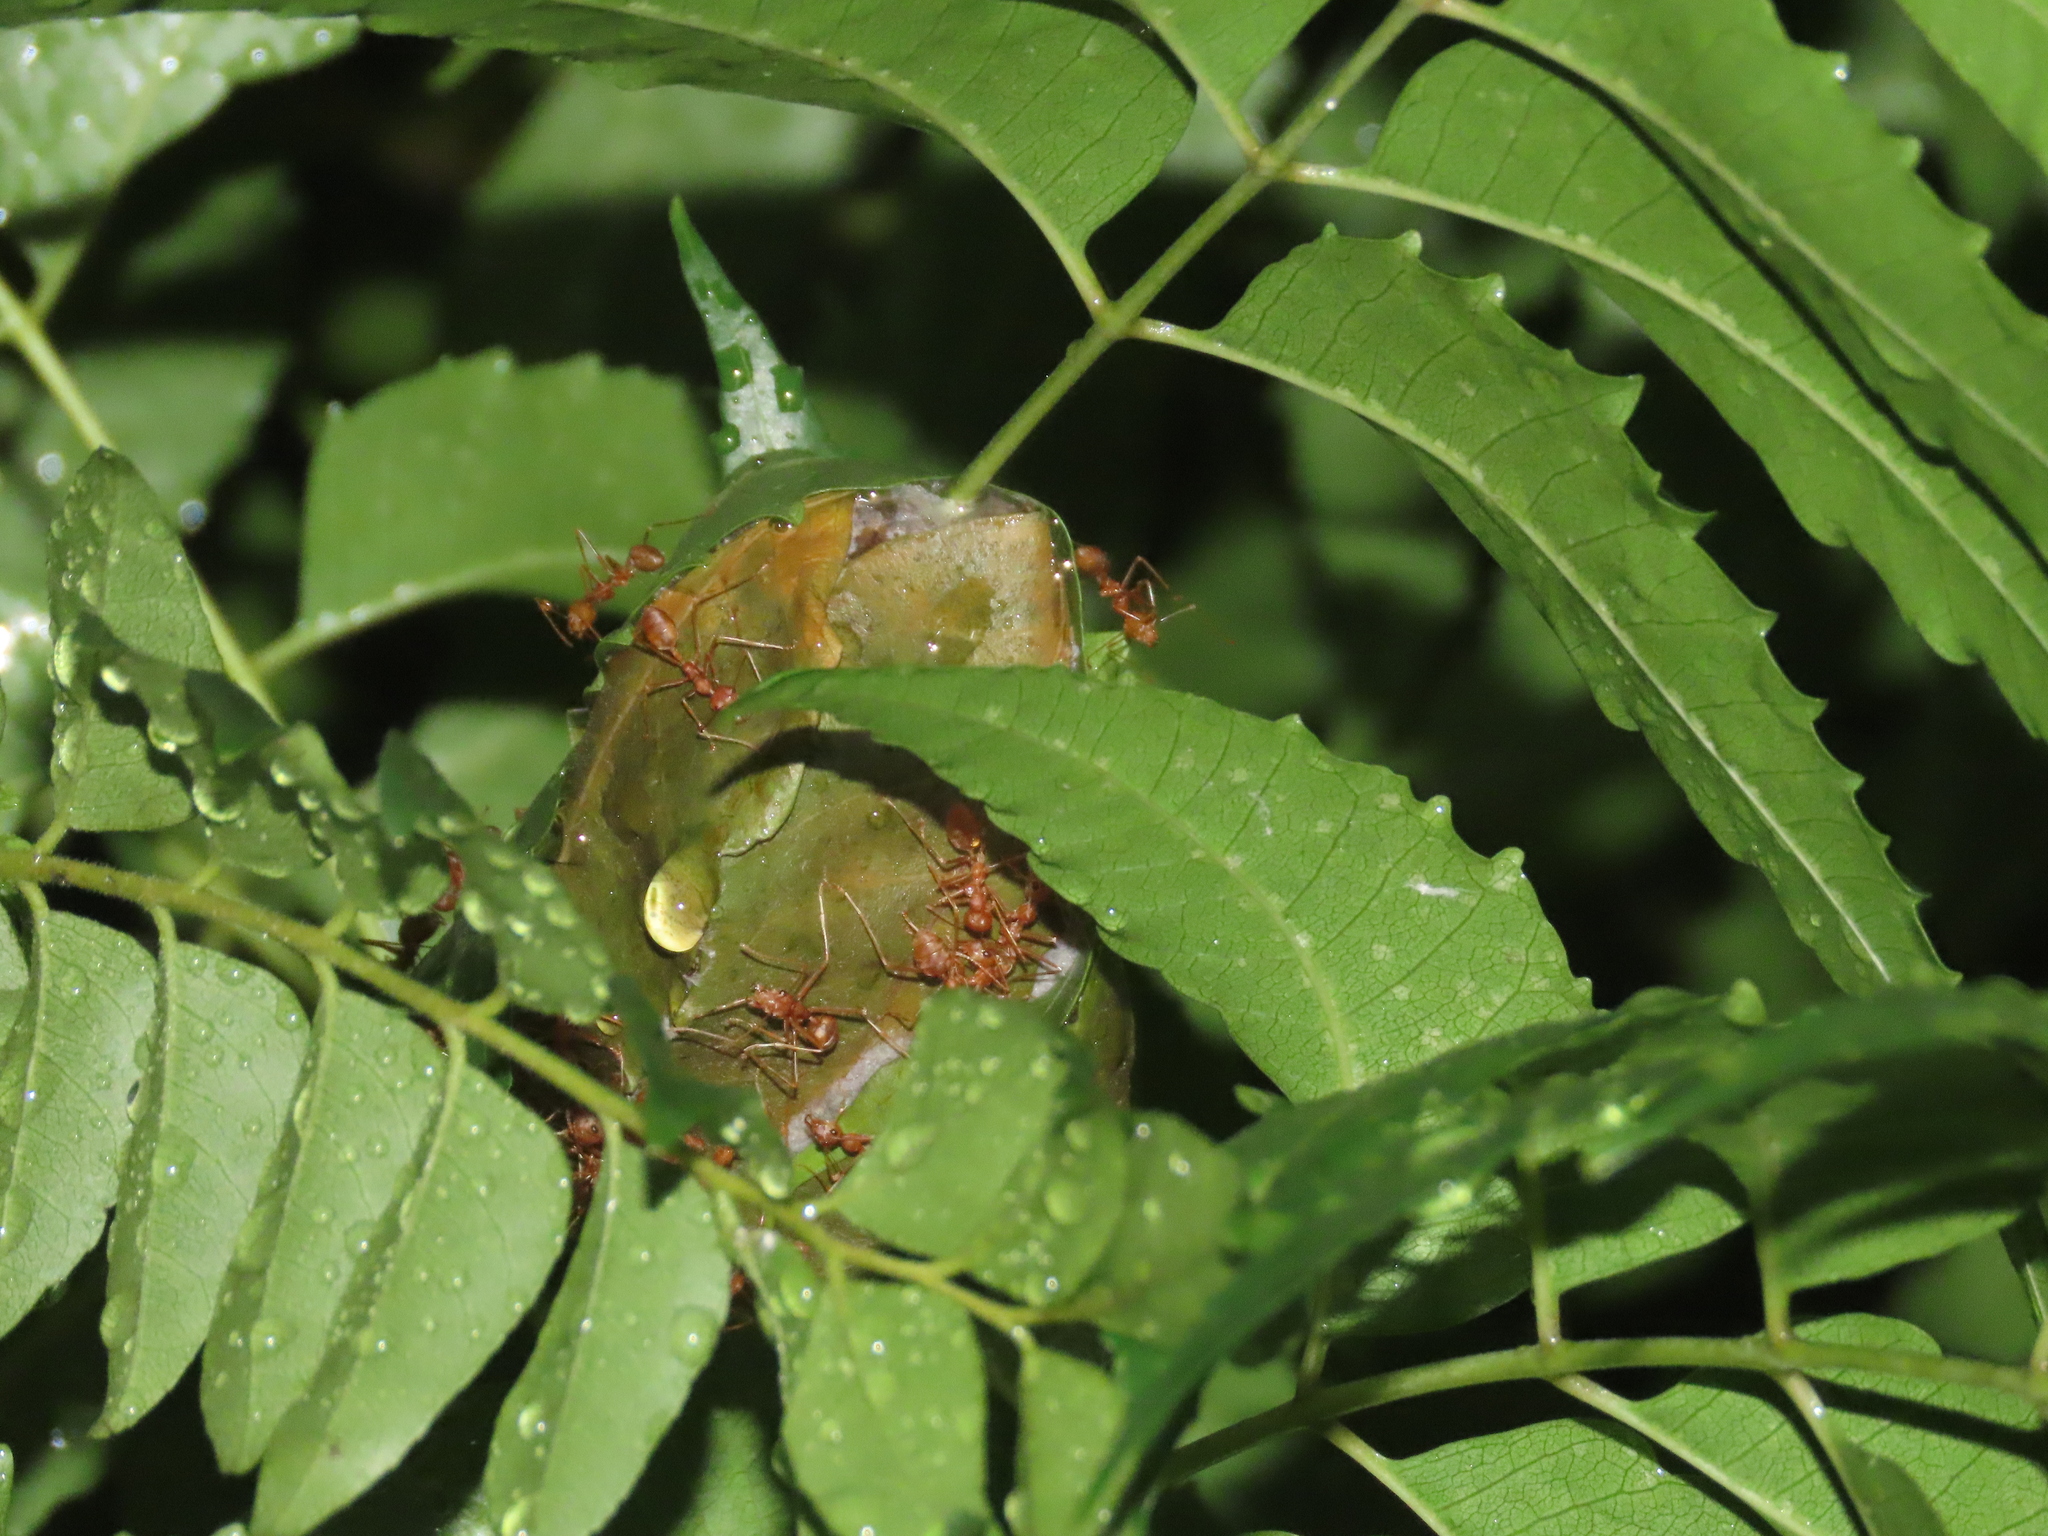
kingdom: Animalia
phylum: Arthropoda
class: Insecta
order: Hymenoptera
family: Formicidae
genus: Oecophylla
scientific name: Oecophylla smaragdina
